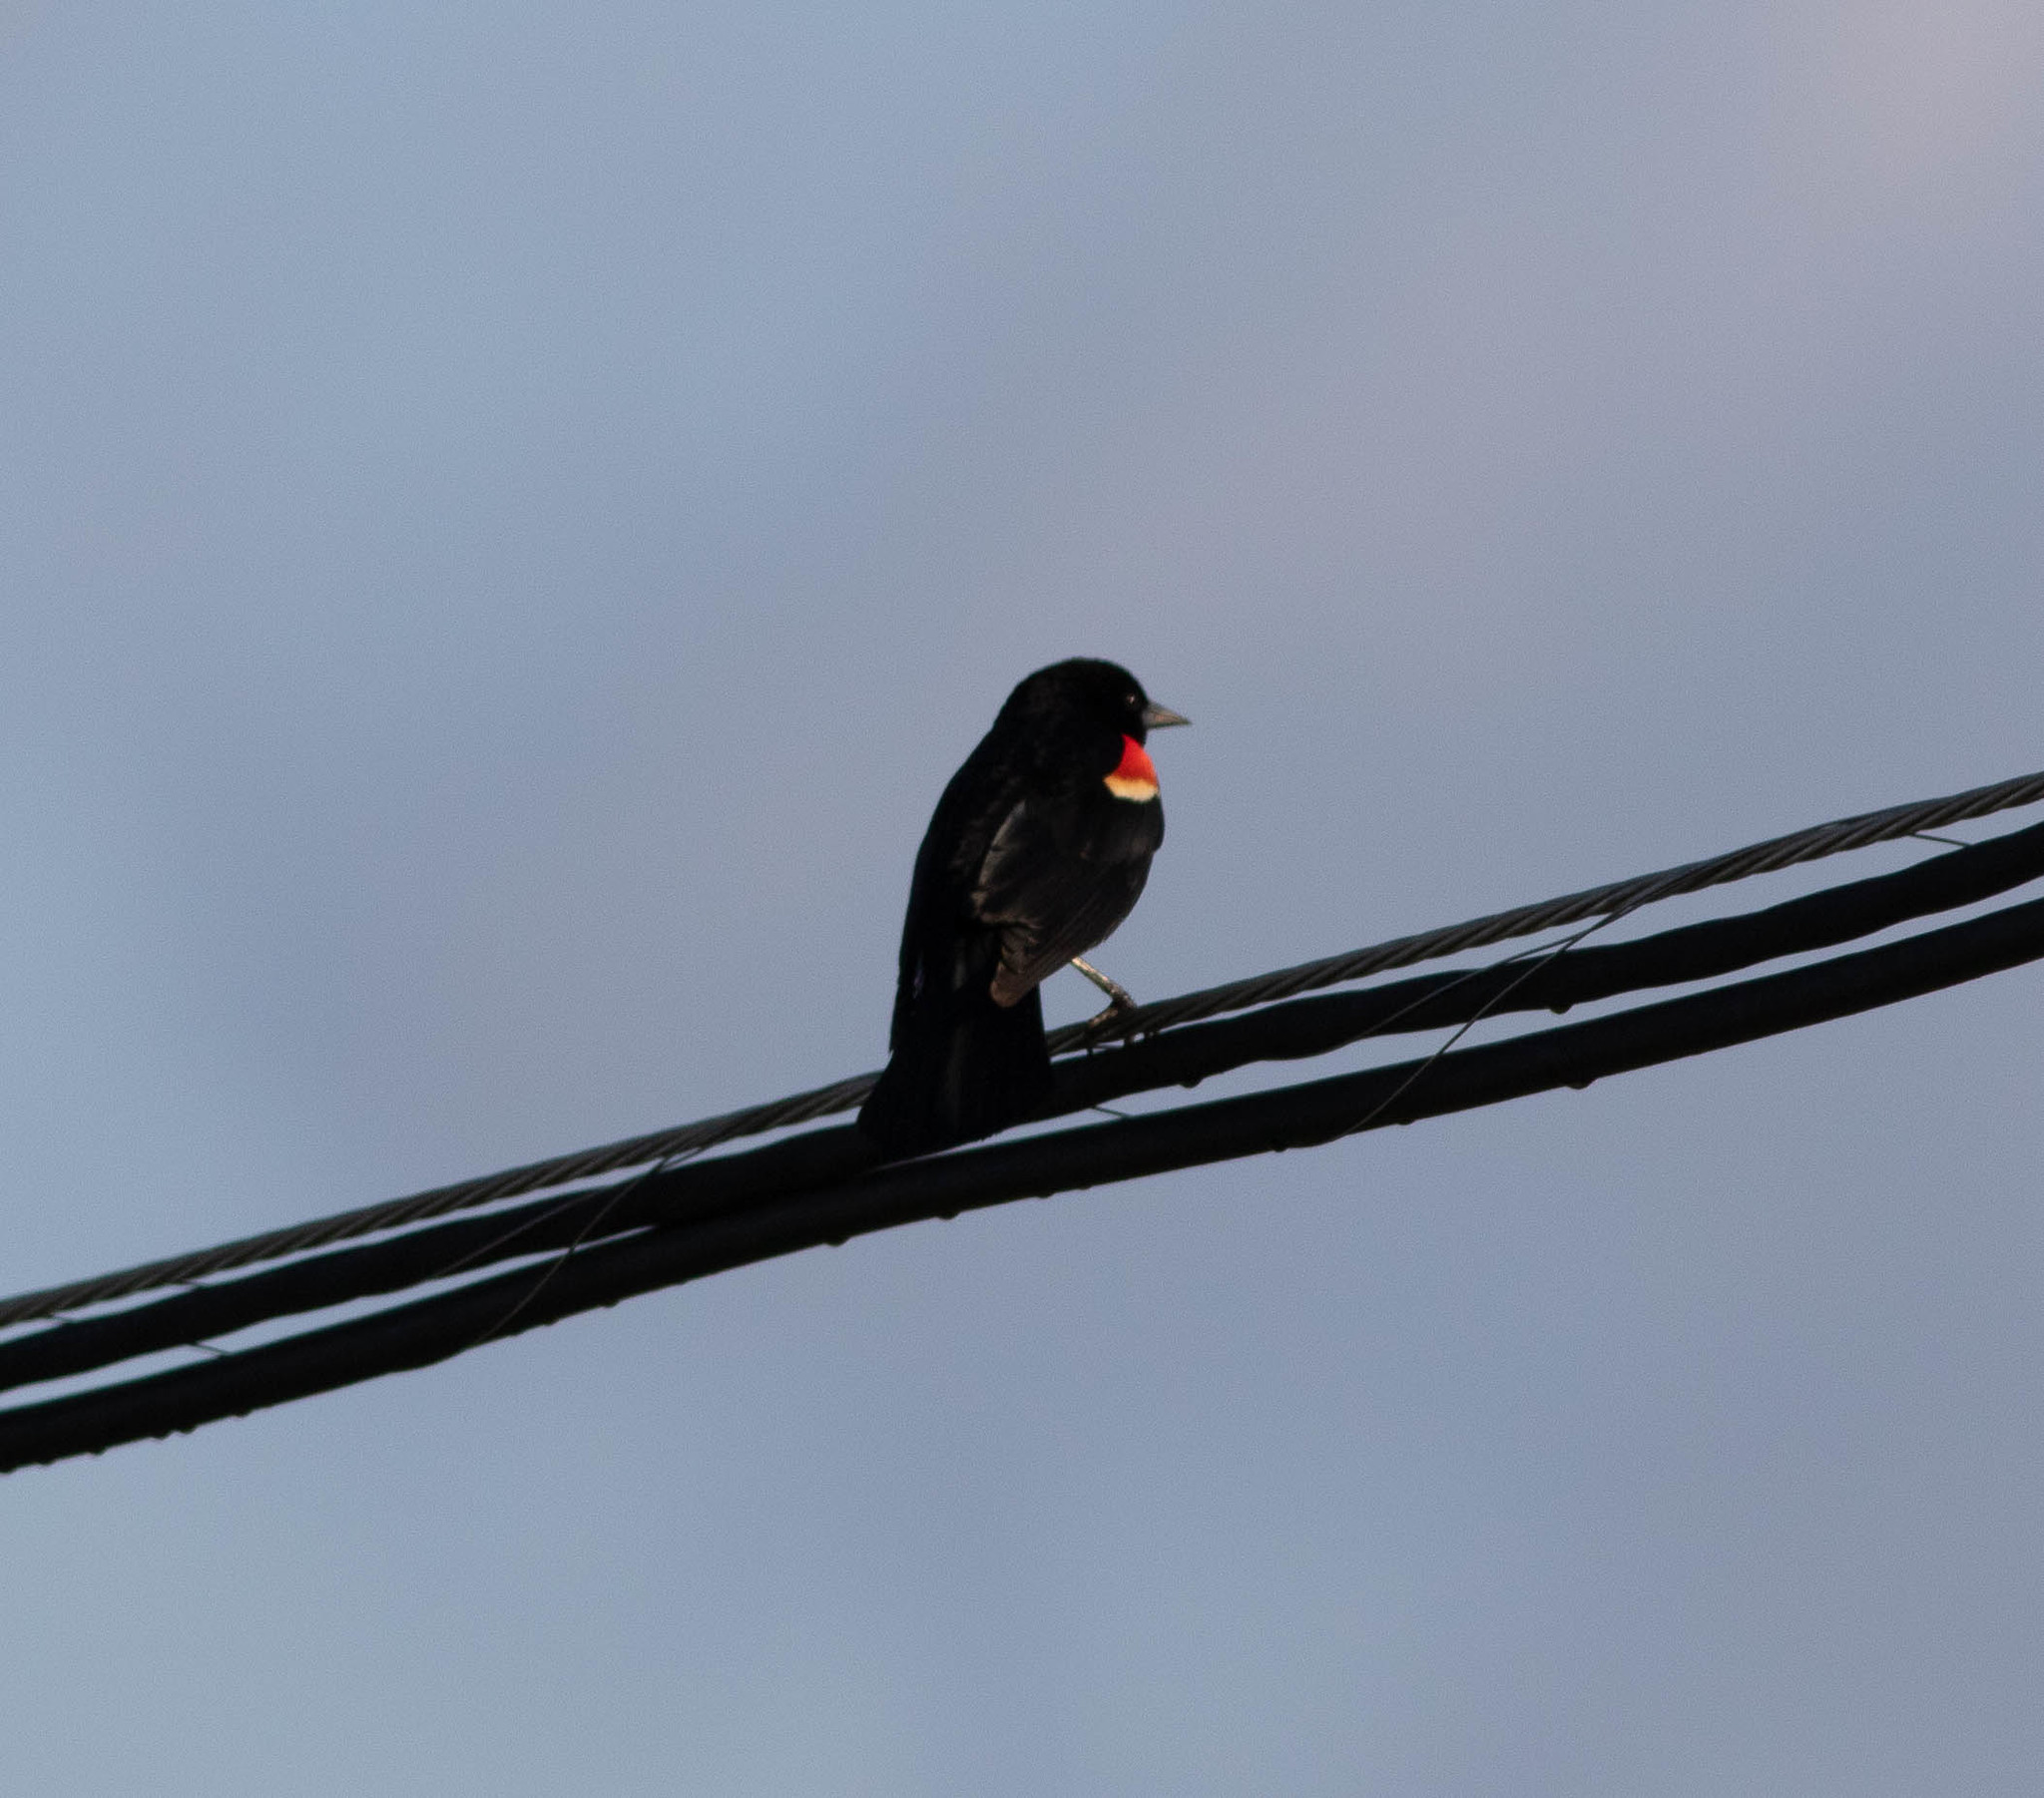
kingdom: Animalia
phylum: Chordata
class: Aves
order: Passeriformes
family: Icteridae
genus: Agelaius
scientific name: Agelaius phoeniceus
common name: Red-winged blackbird
